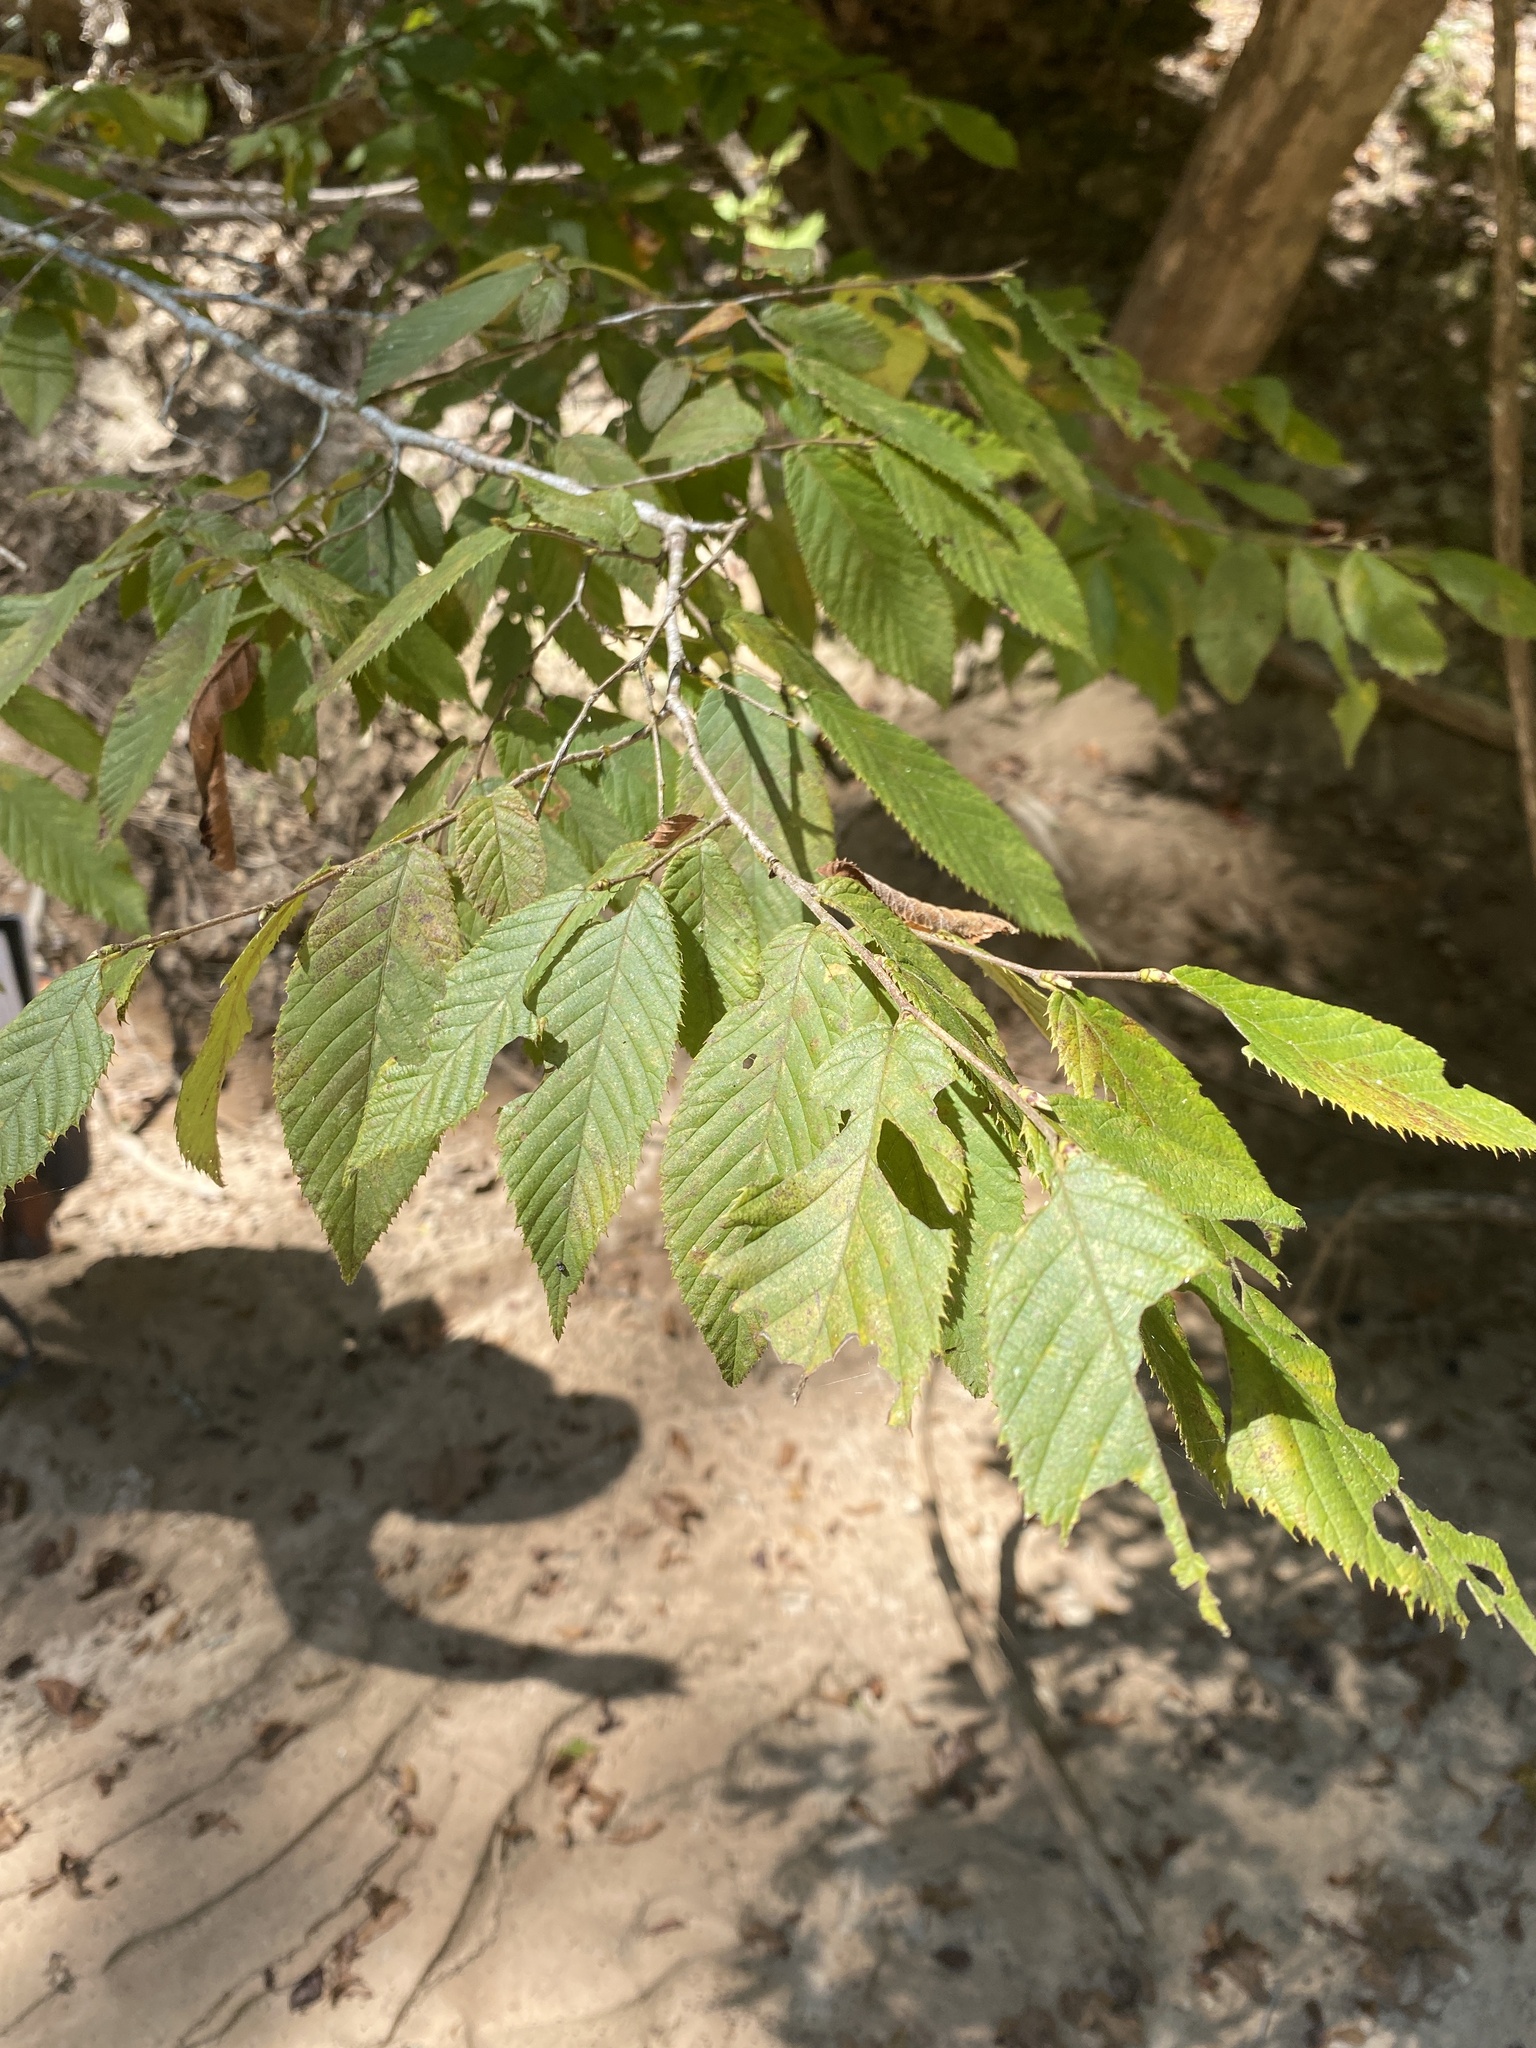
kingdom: Plantae
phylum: Tracheophyta
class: Magnoliopsida
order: Fagales
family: Betulaceae
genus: Ostrya
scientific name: Ostrya virginiana
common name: Ironwood
